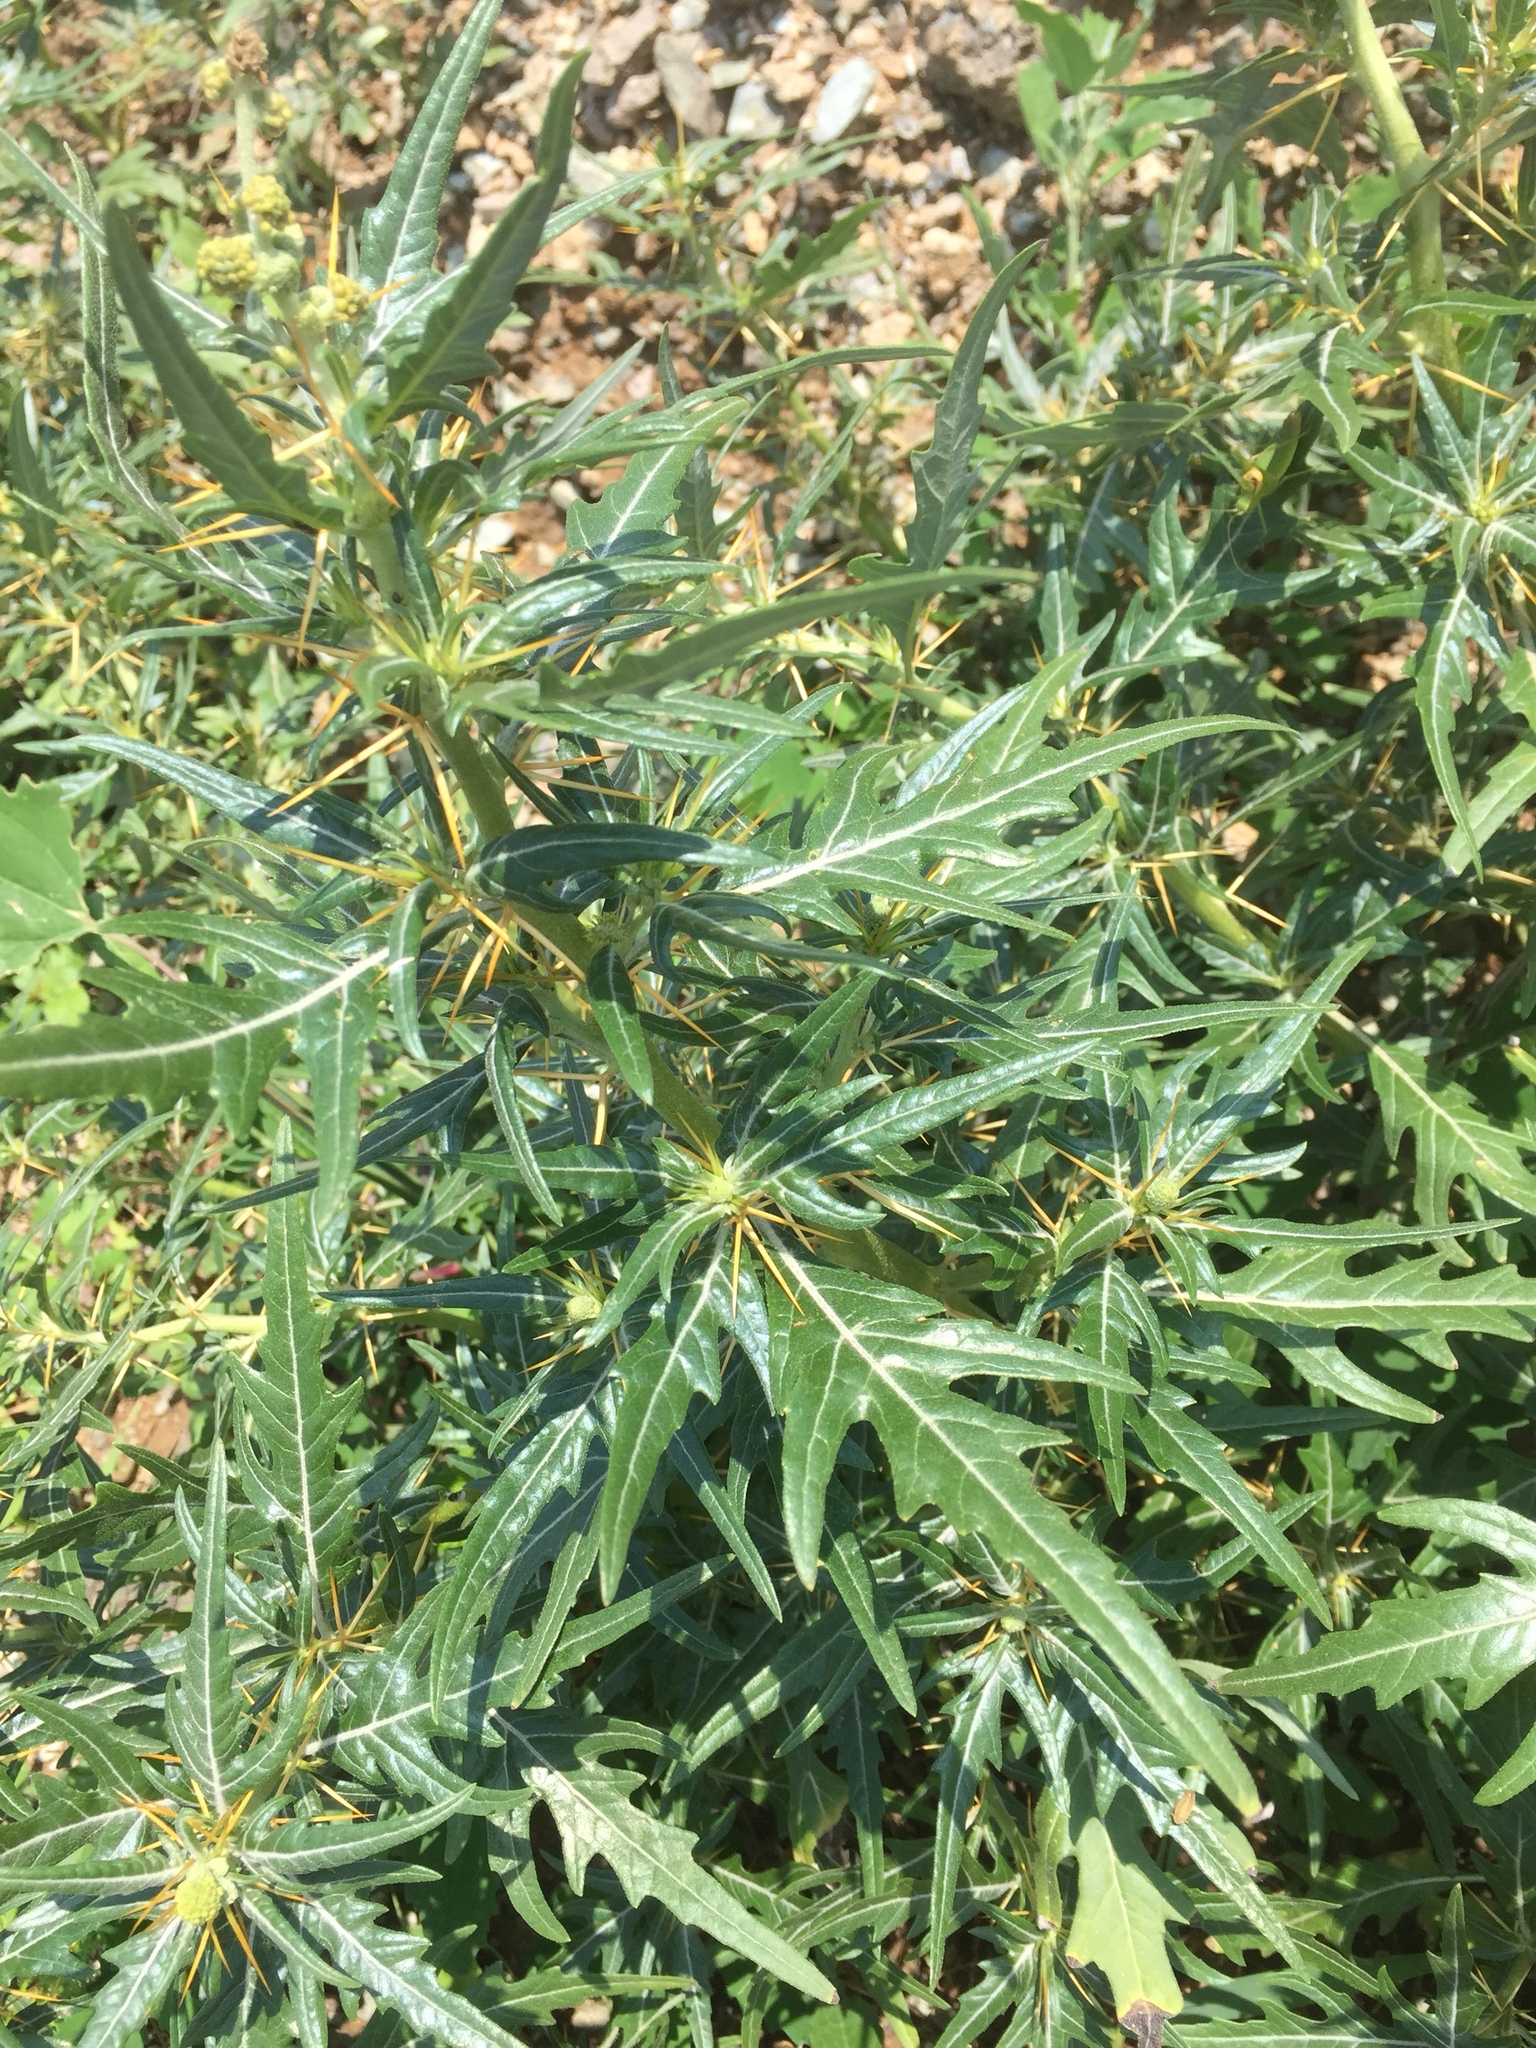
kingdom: Plantae
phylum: Tracheophyta
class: Magnoliopsida
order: Asterales
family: Asteraceae
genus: Xanthium
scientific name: Xanthium spinosum
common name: Spiny cocklebur
